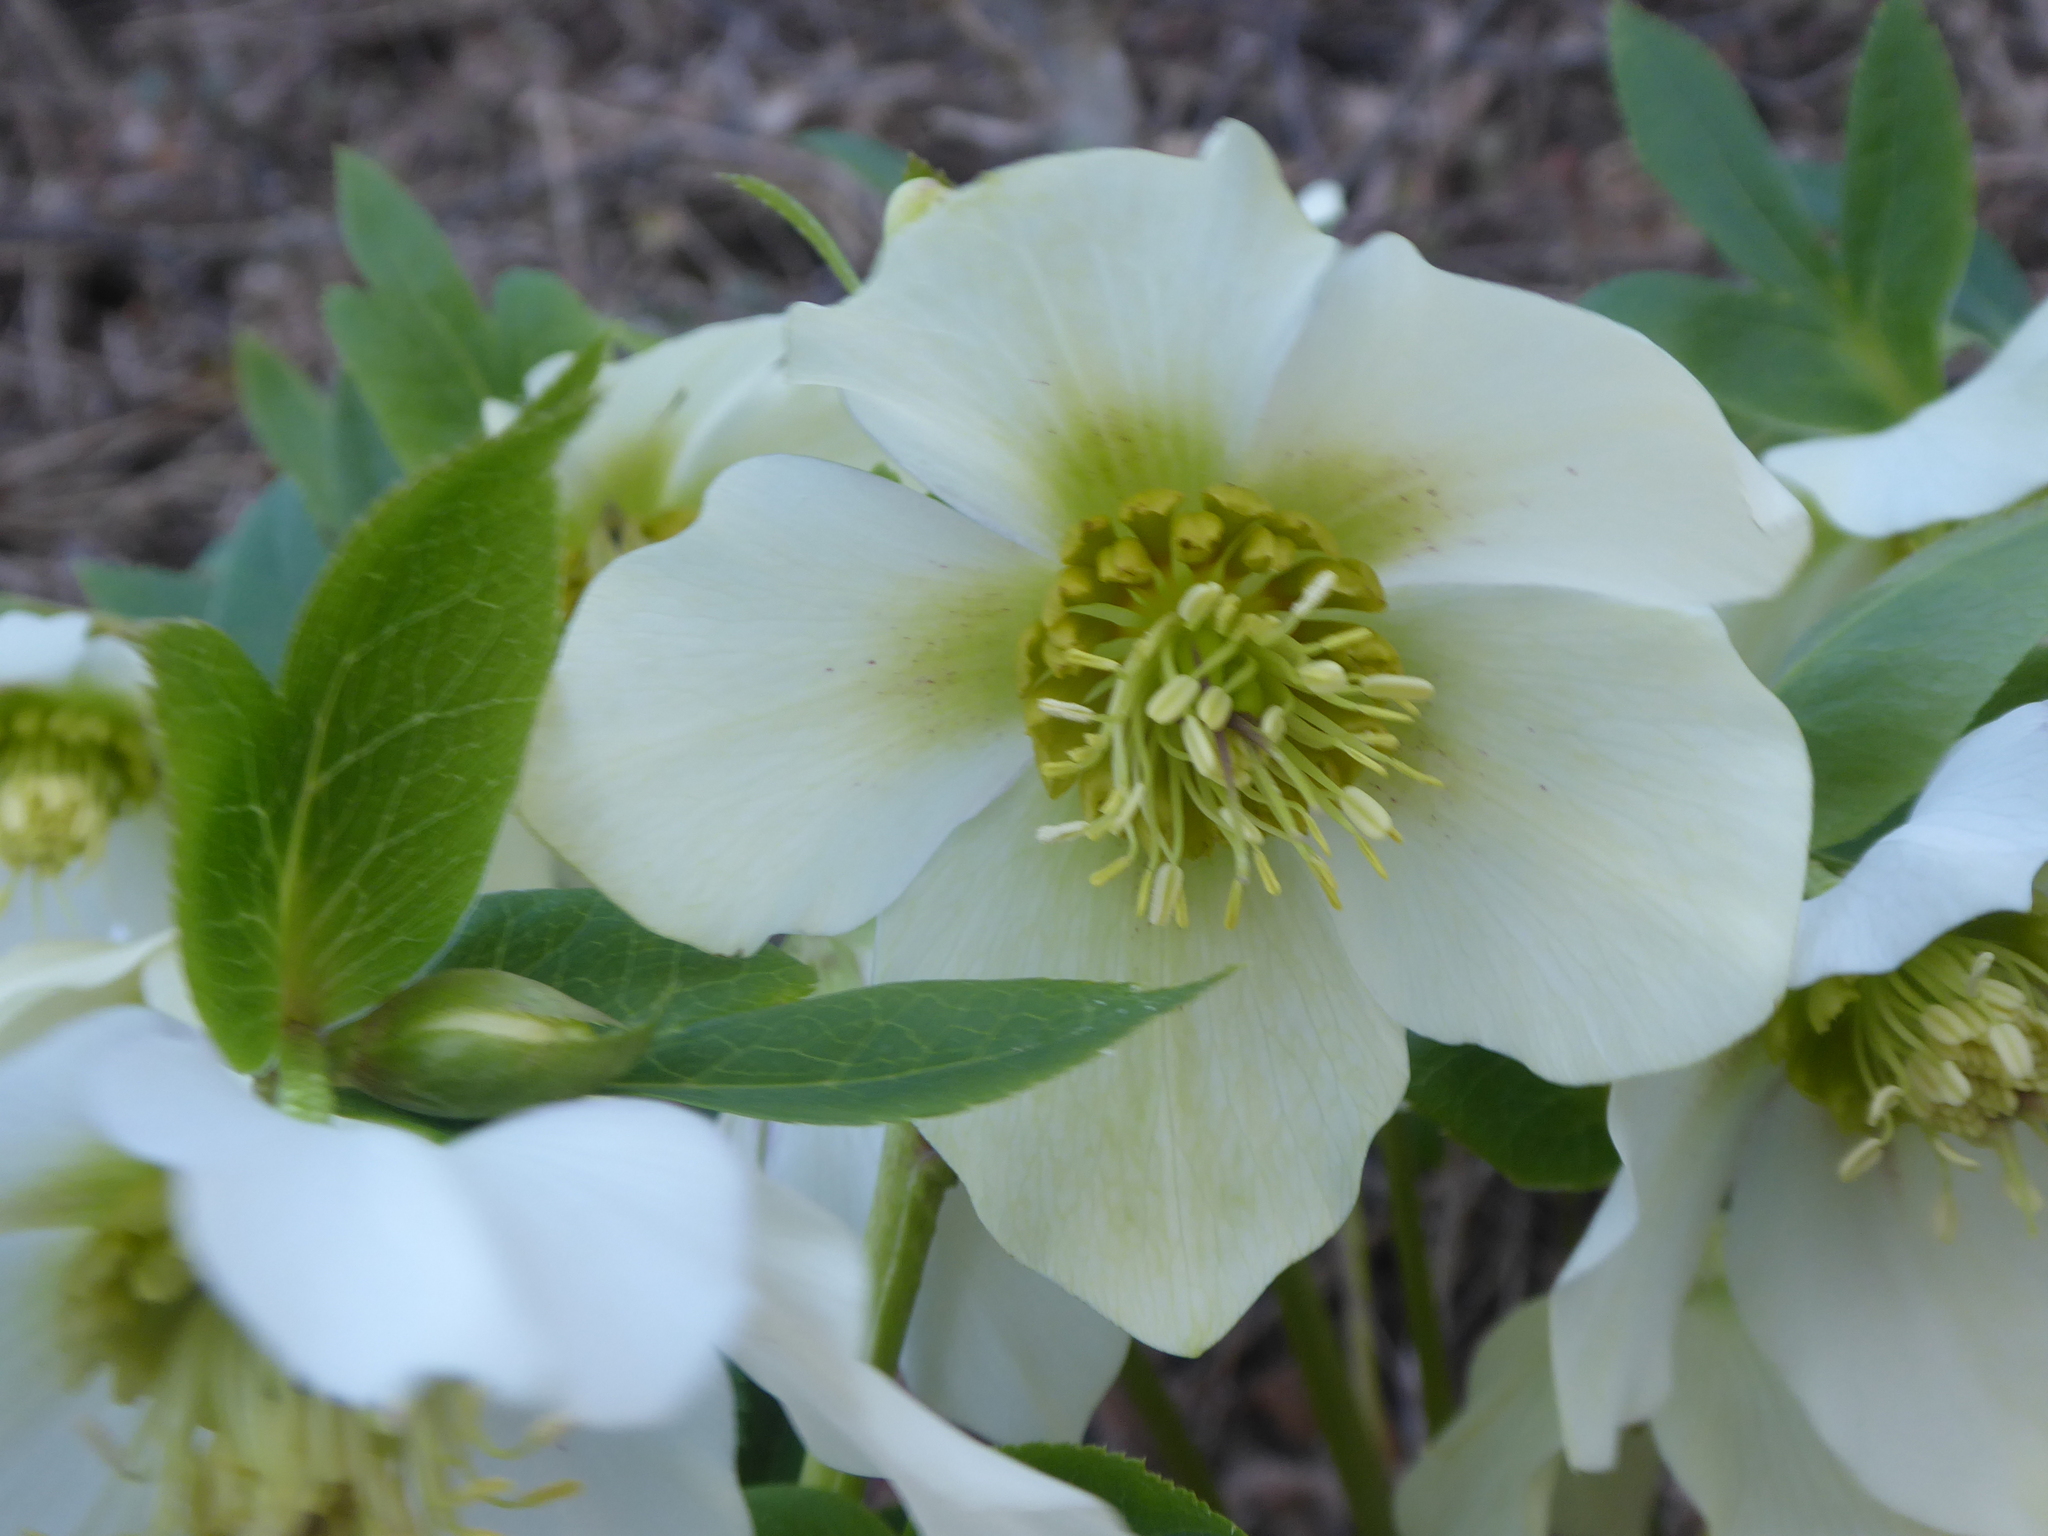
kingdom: Plantae
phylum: Tracheophyta
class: Magnoliopsida
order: Ranunculales
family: Ranunculaceae
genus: Helleborus
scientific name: Helleborus hybridus
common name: Hybrid lenten-rose
